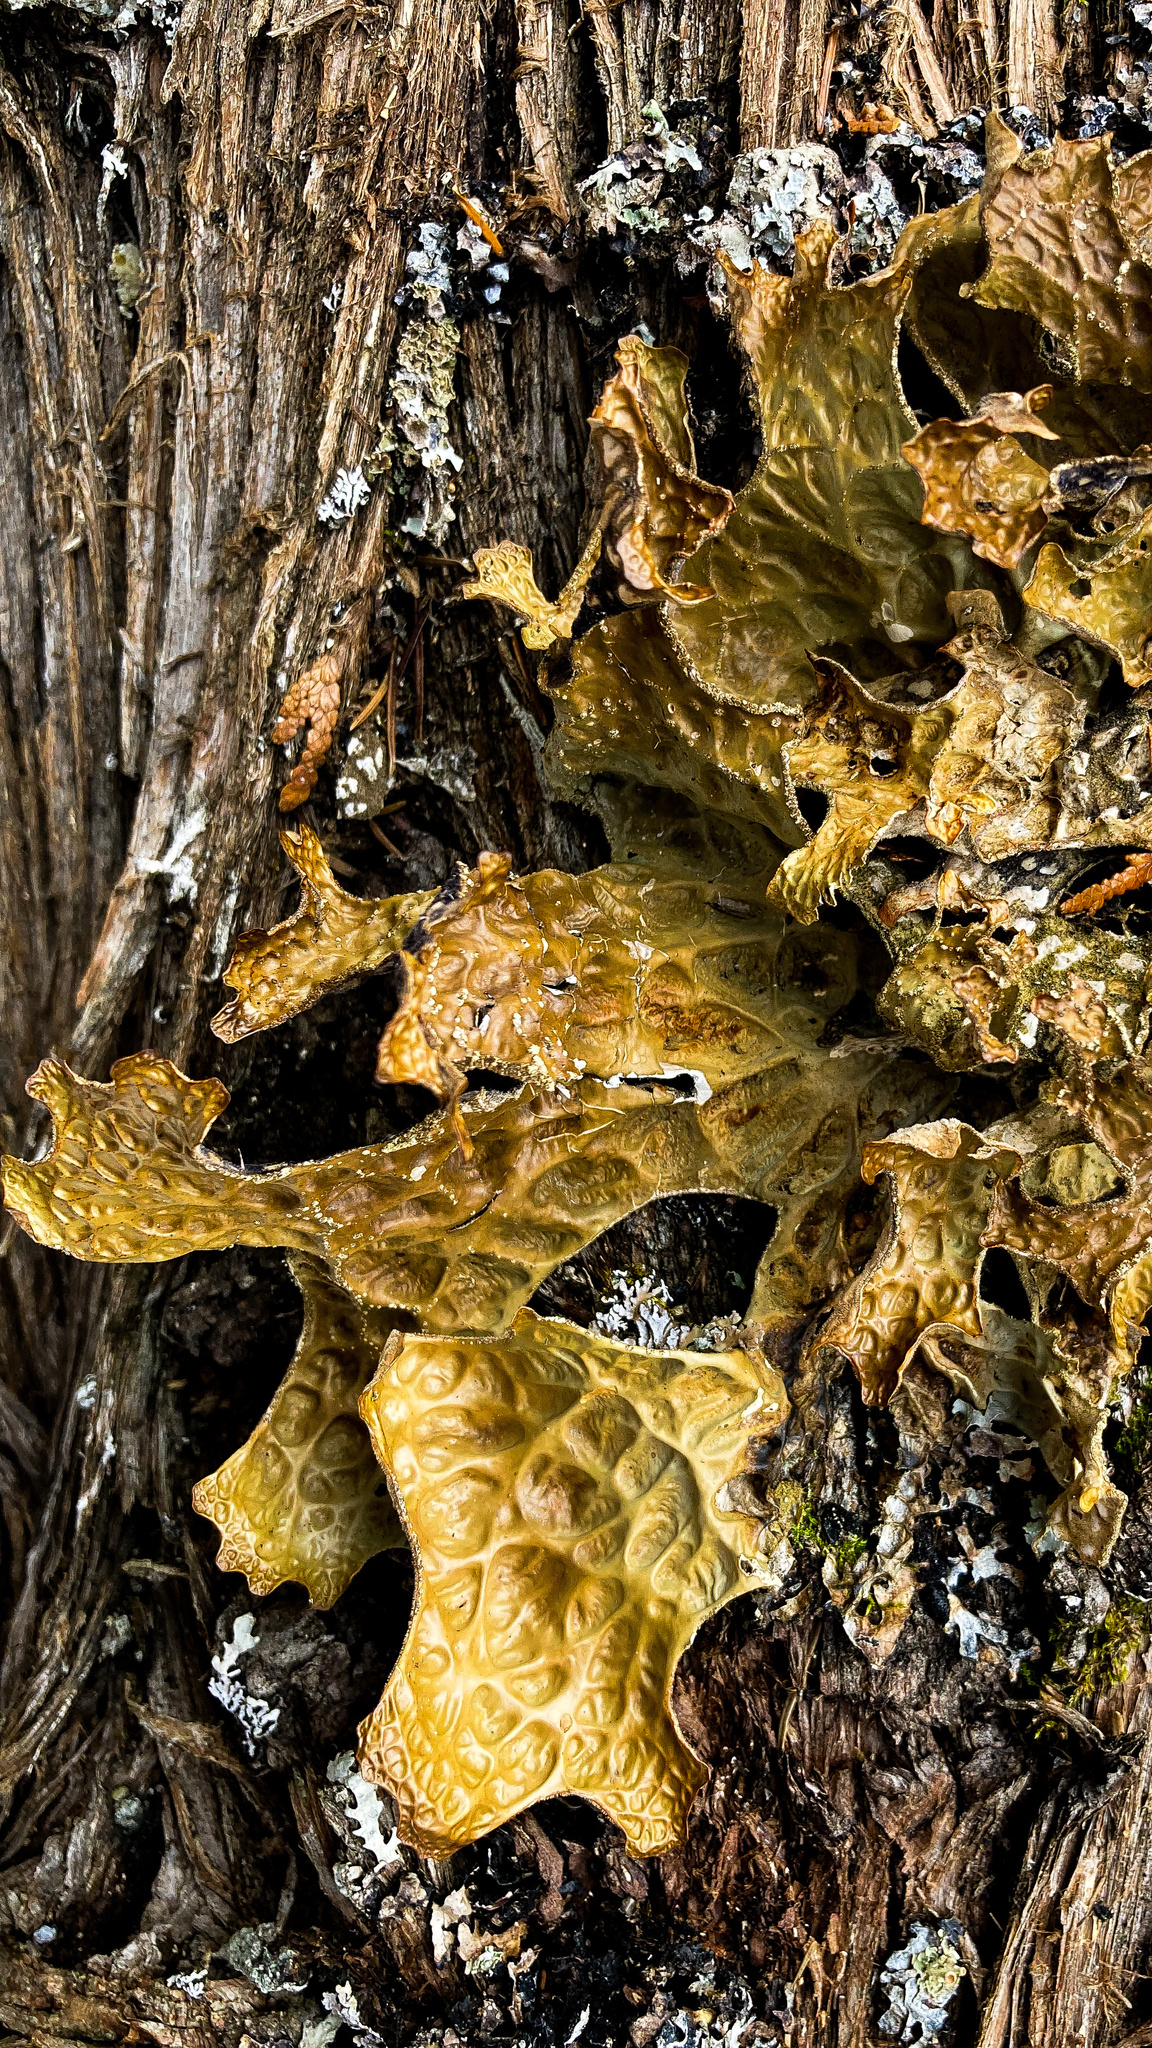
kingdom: Fungi
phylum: Ascomycota
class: Lecanoromycetes
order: Peltigerales
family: Lobariaceae
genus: Lobaria
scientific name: Lobaria pulmonaria
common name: Lungwort
